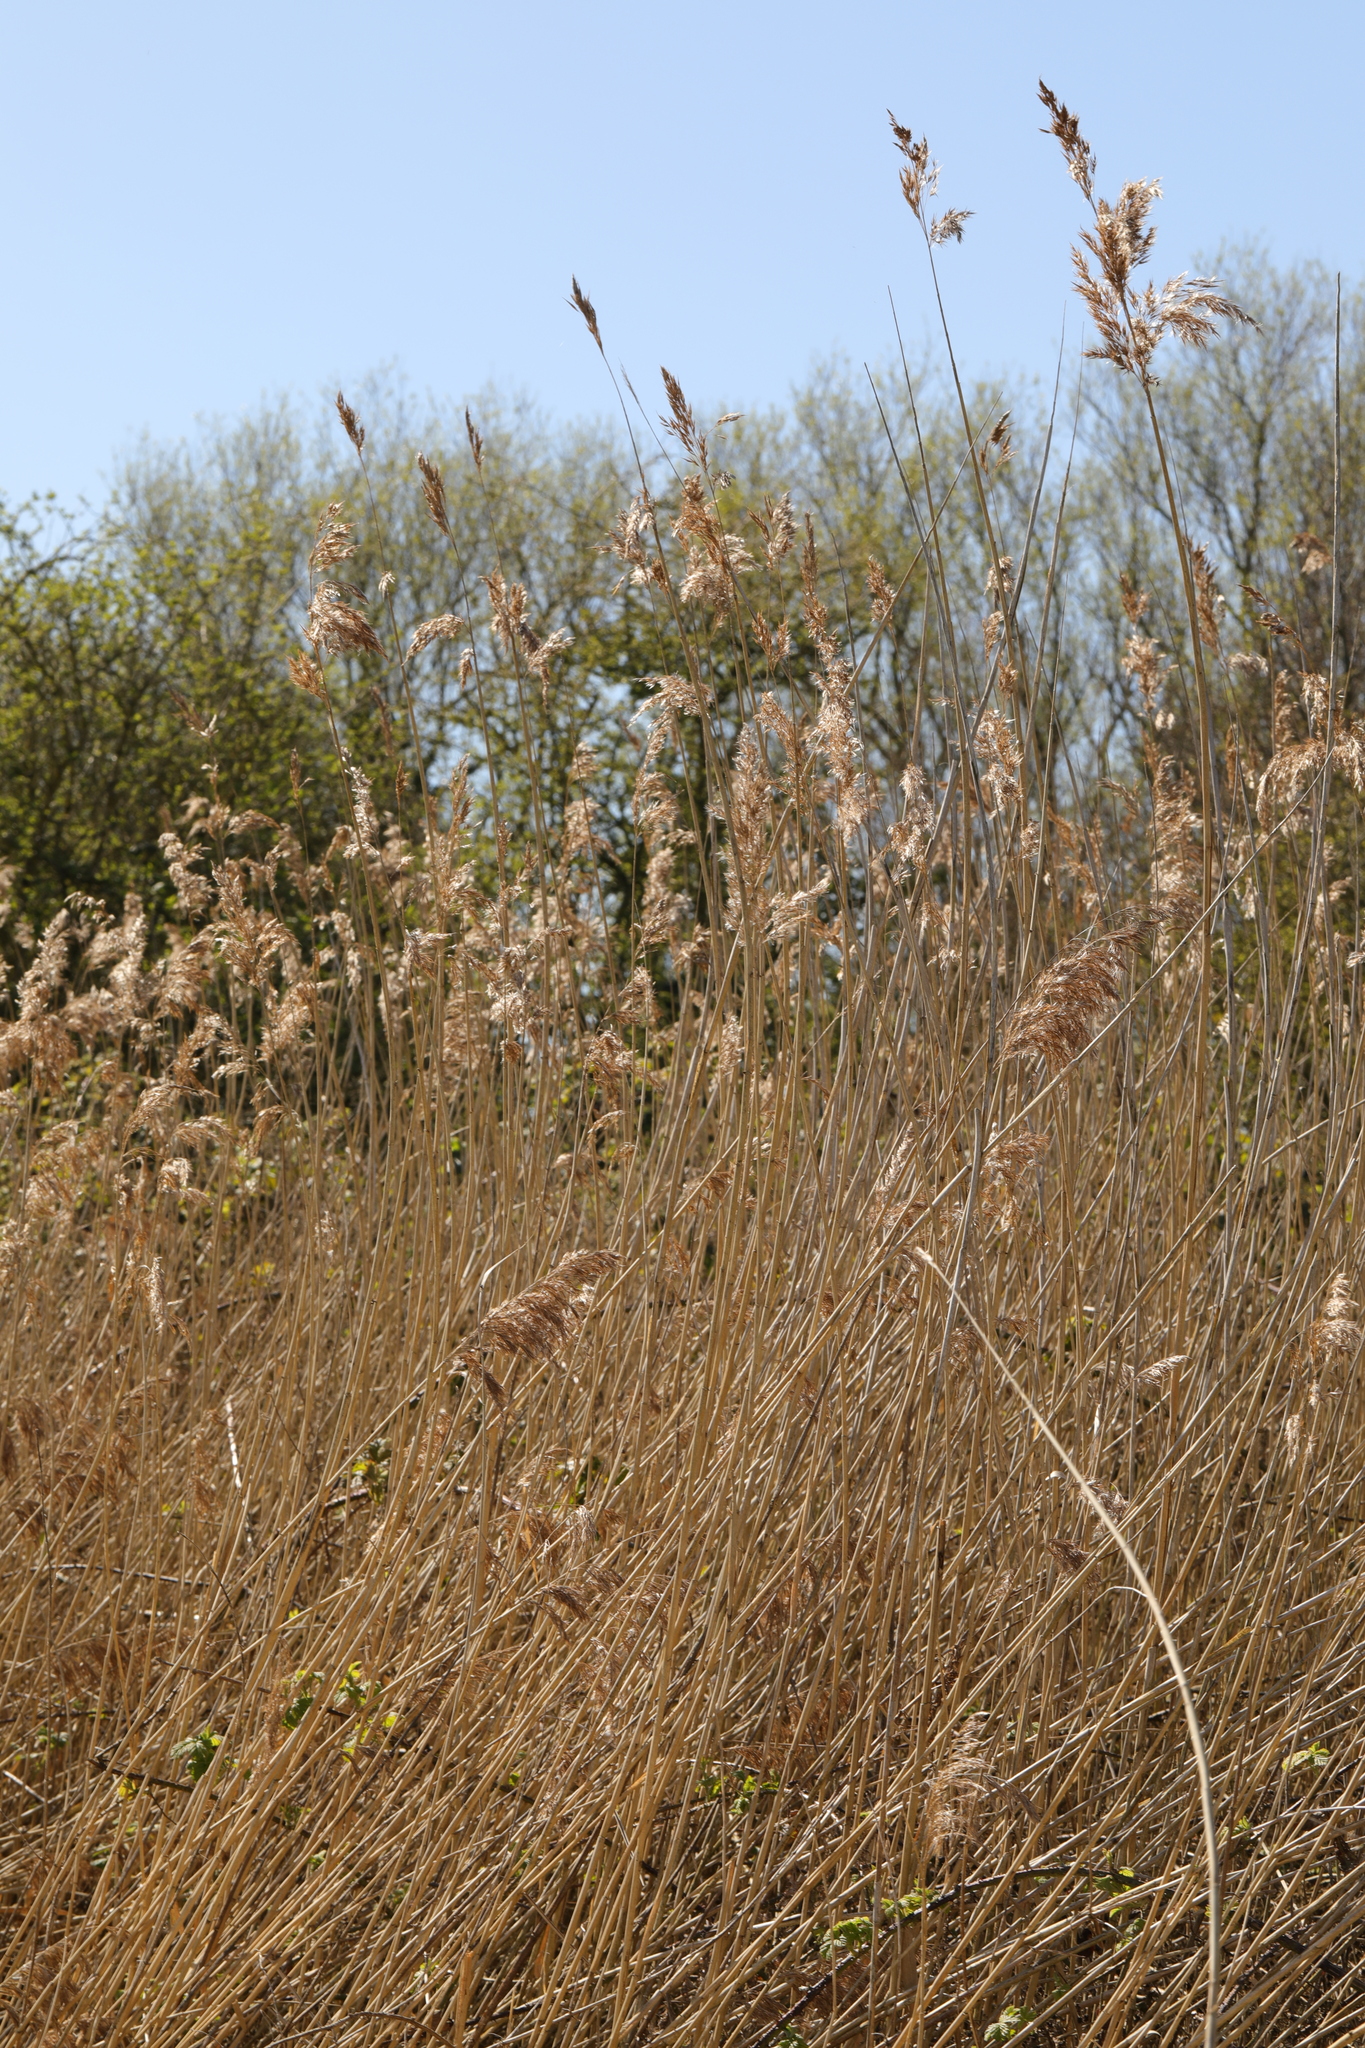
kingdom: Plantae
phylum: Tracheophyta
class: Liliopsida
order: Poales
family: Poaceae
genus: Phragmites
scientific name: Phragmites australis
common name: Common reed
